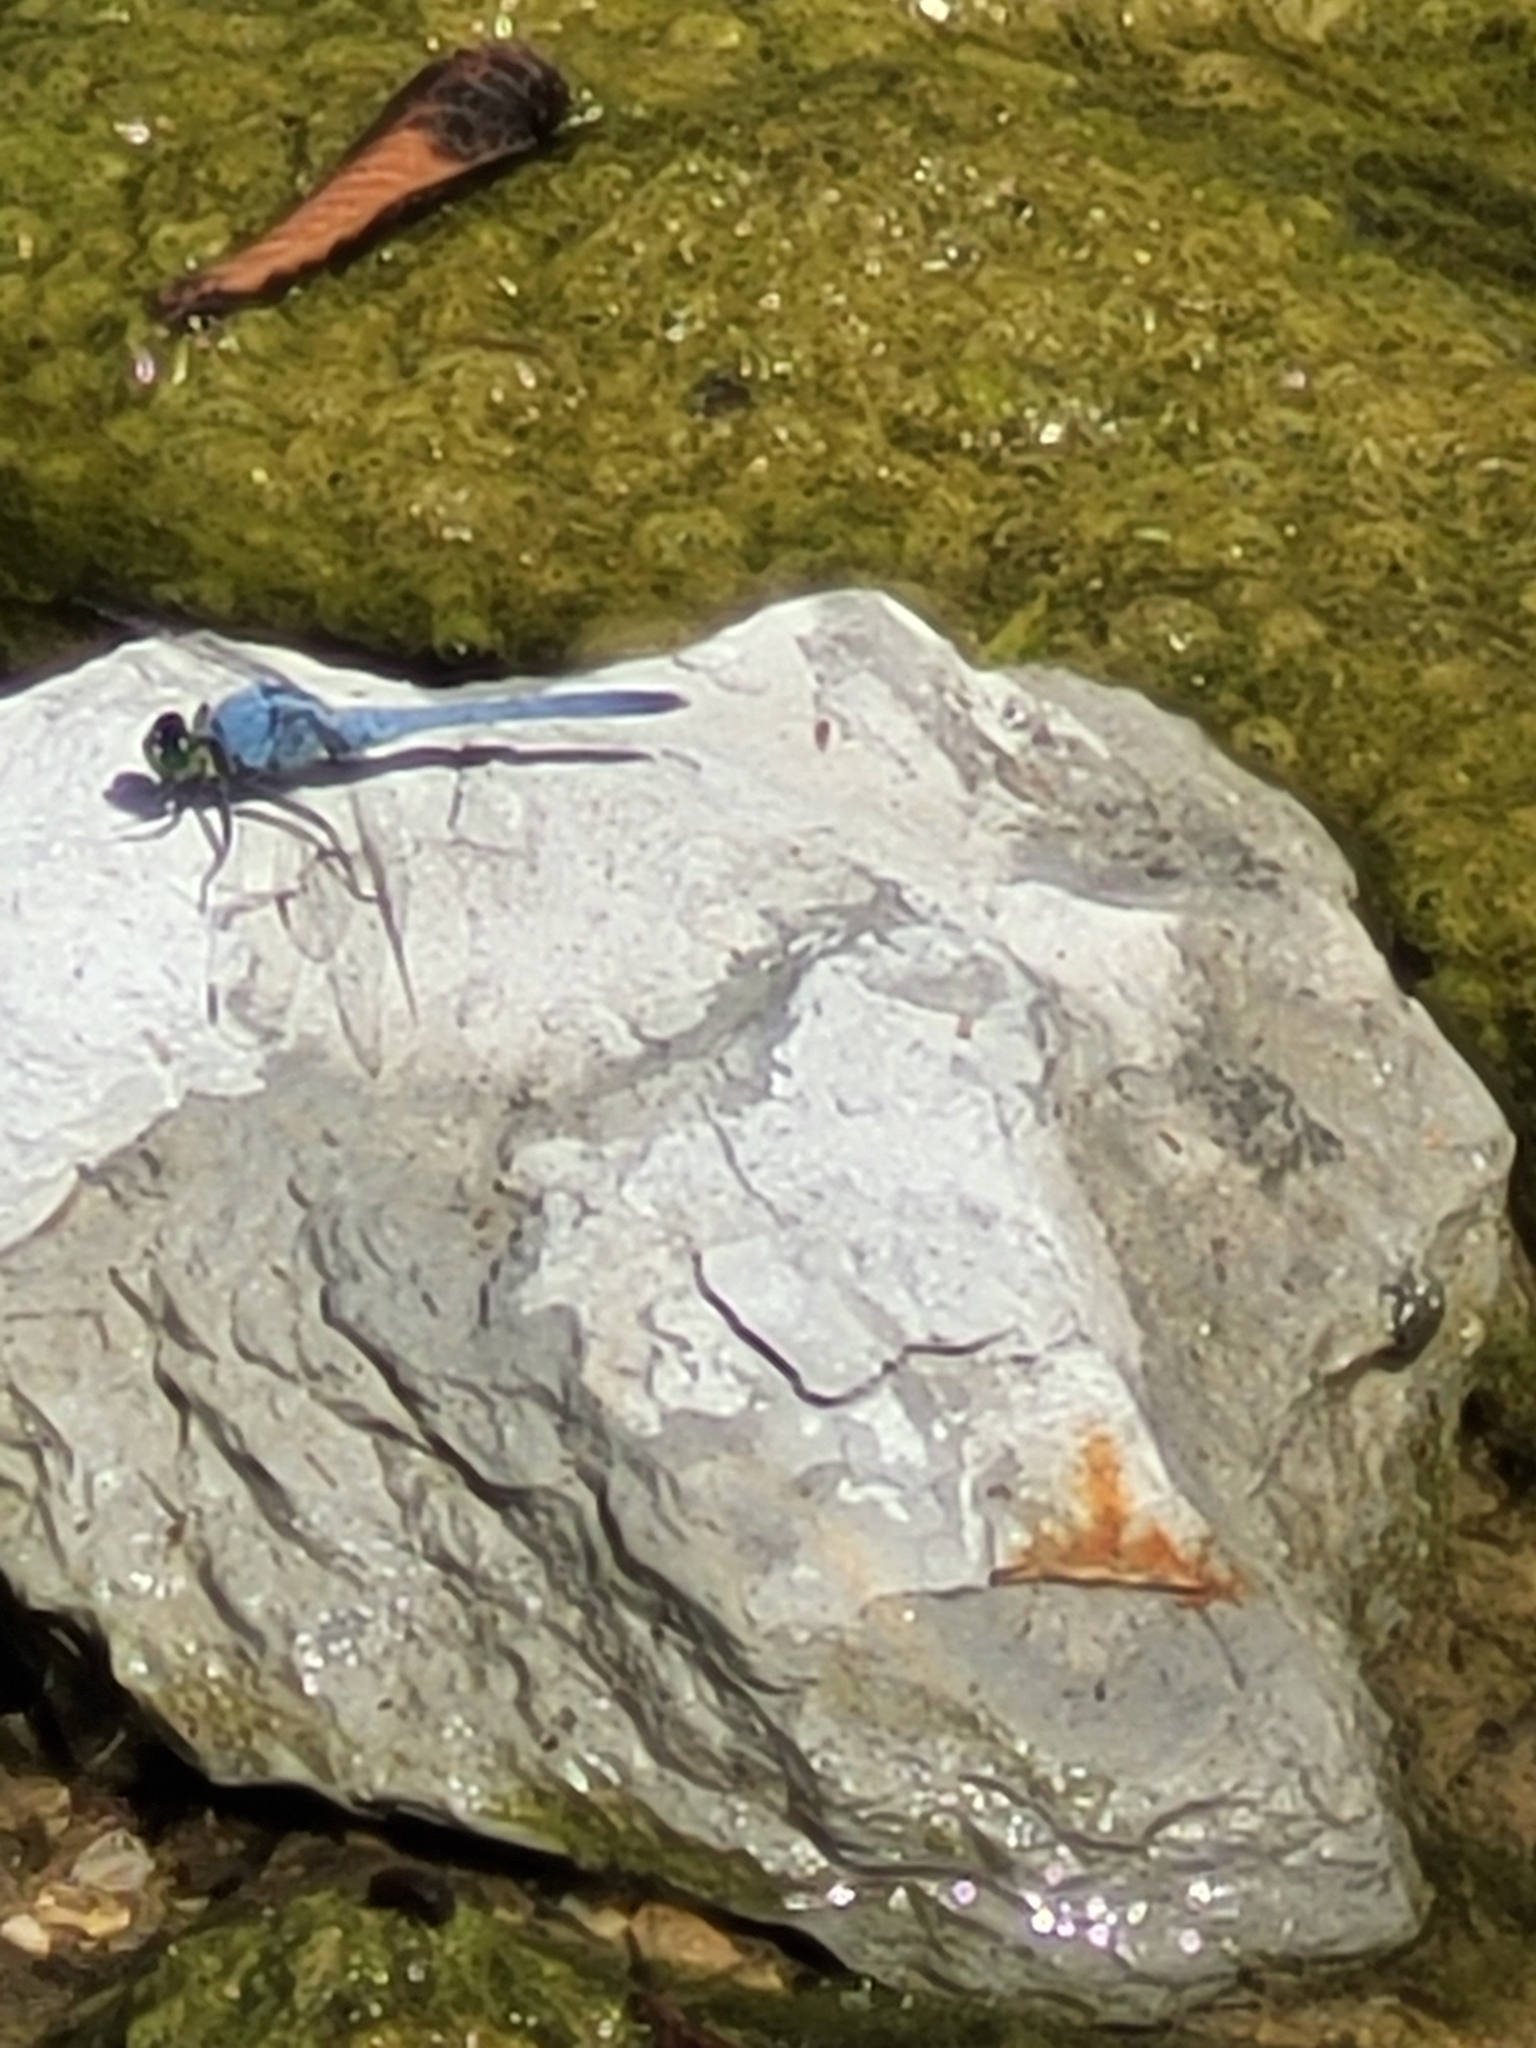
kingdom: Animalia
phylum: Arthropoda
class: Insecta
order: Odonata
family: Libellulidae
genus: Erythemis
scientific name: Erythemis simplicicollis
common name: Eastern pondhawk
